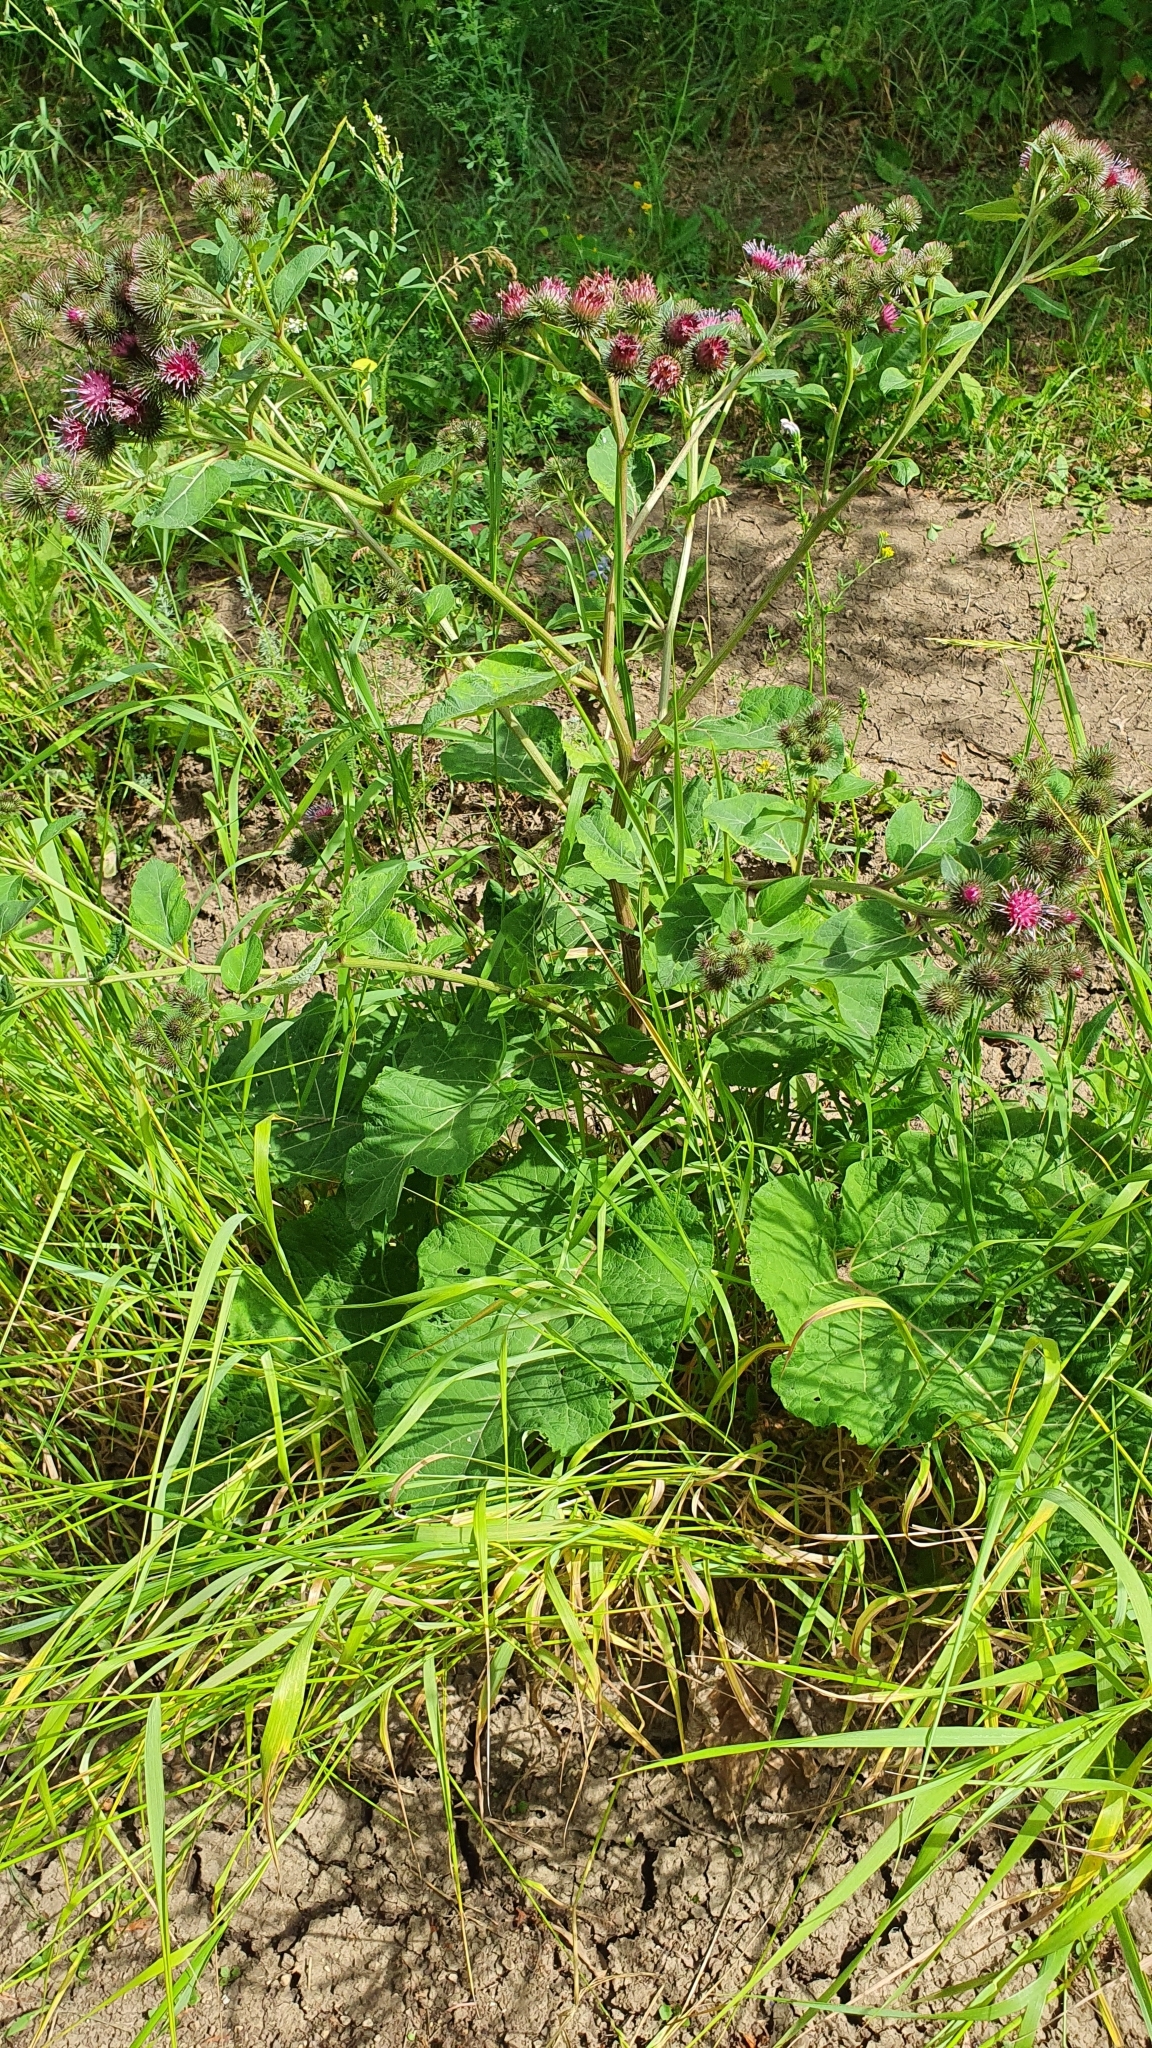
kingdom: Plantae
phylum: Tracheophyta
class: Magnoliopsida
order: Asterales
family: Asteraceae
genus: Arctium
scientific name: Arctium lappa
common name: Greater burdock
